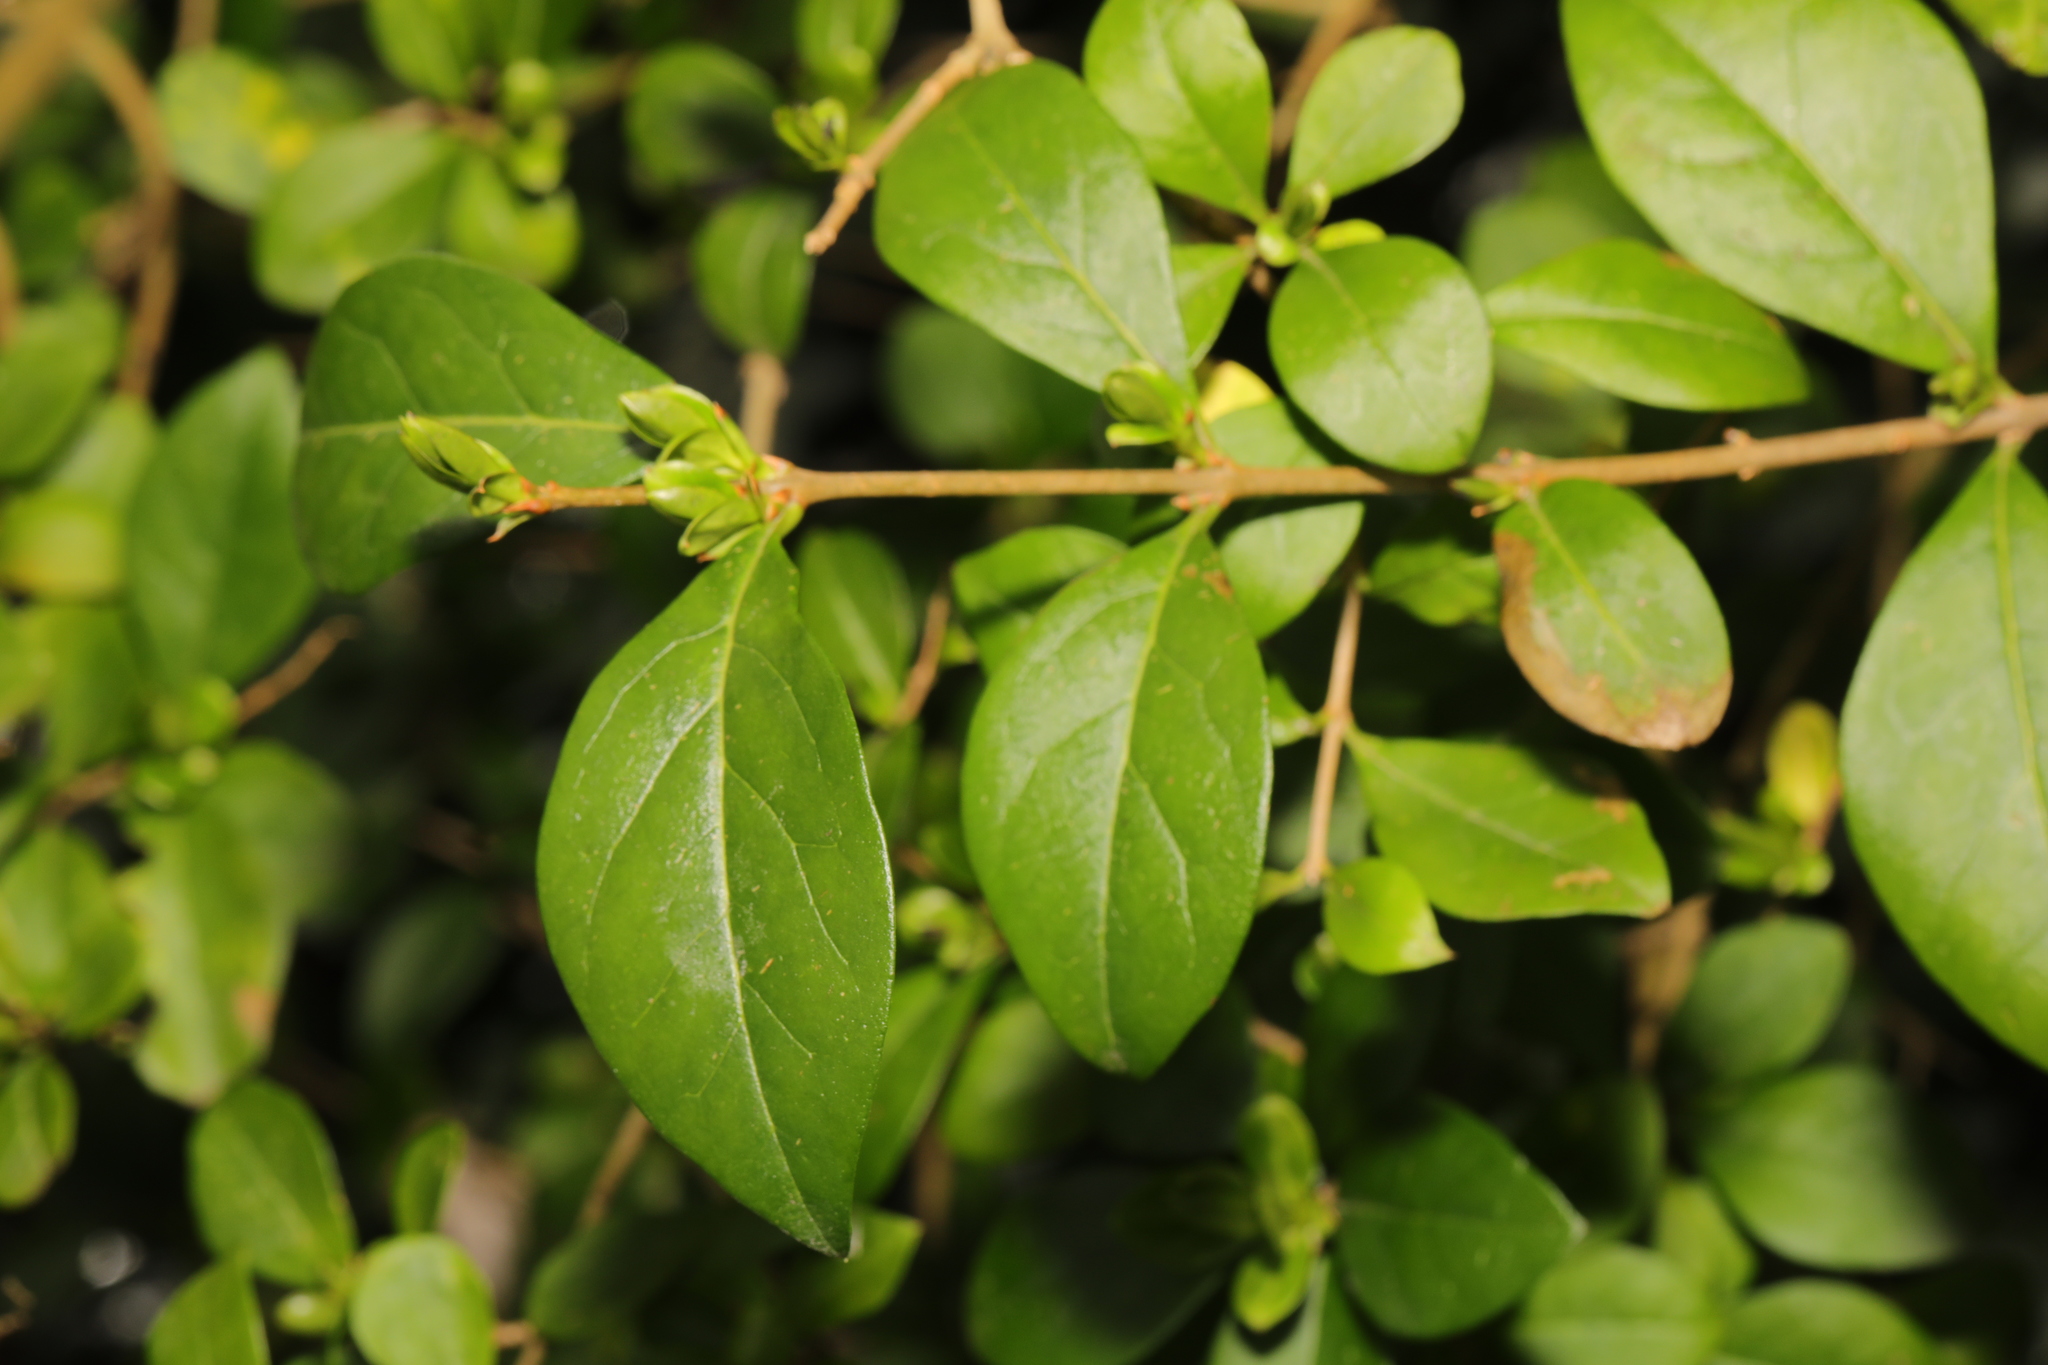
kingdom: Plantae
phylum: Tracheophyta
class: Magnoliopsida
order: Lamiales
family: Oleaceae
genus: Ligustrum
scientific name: Ligustrum ovalifolium
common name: California privet
